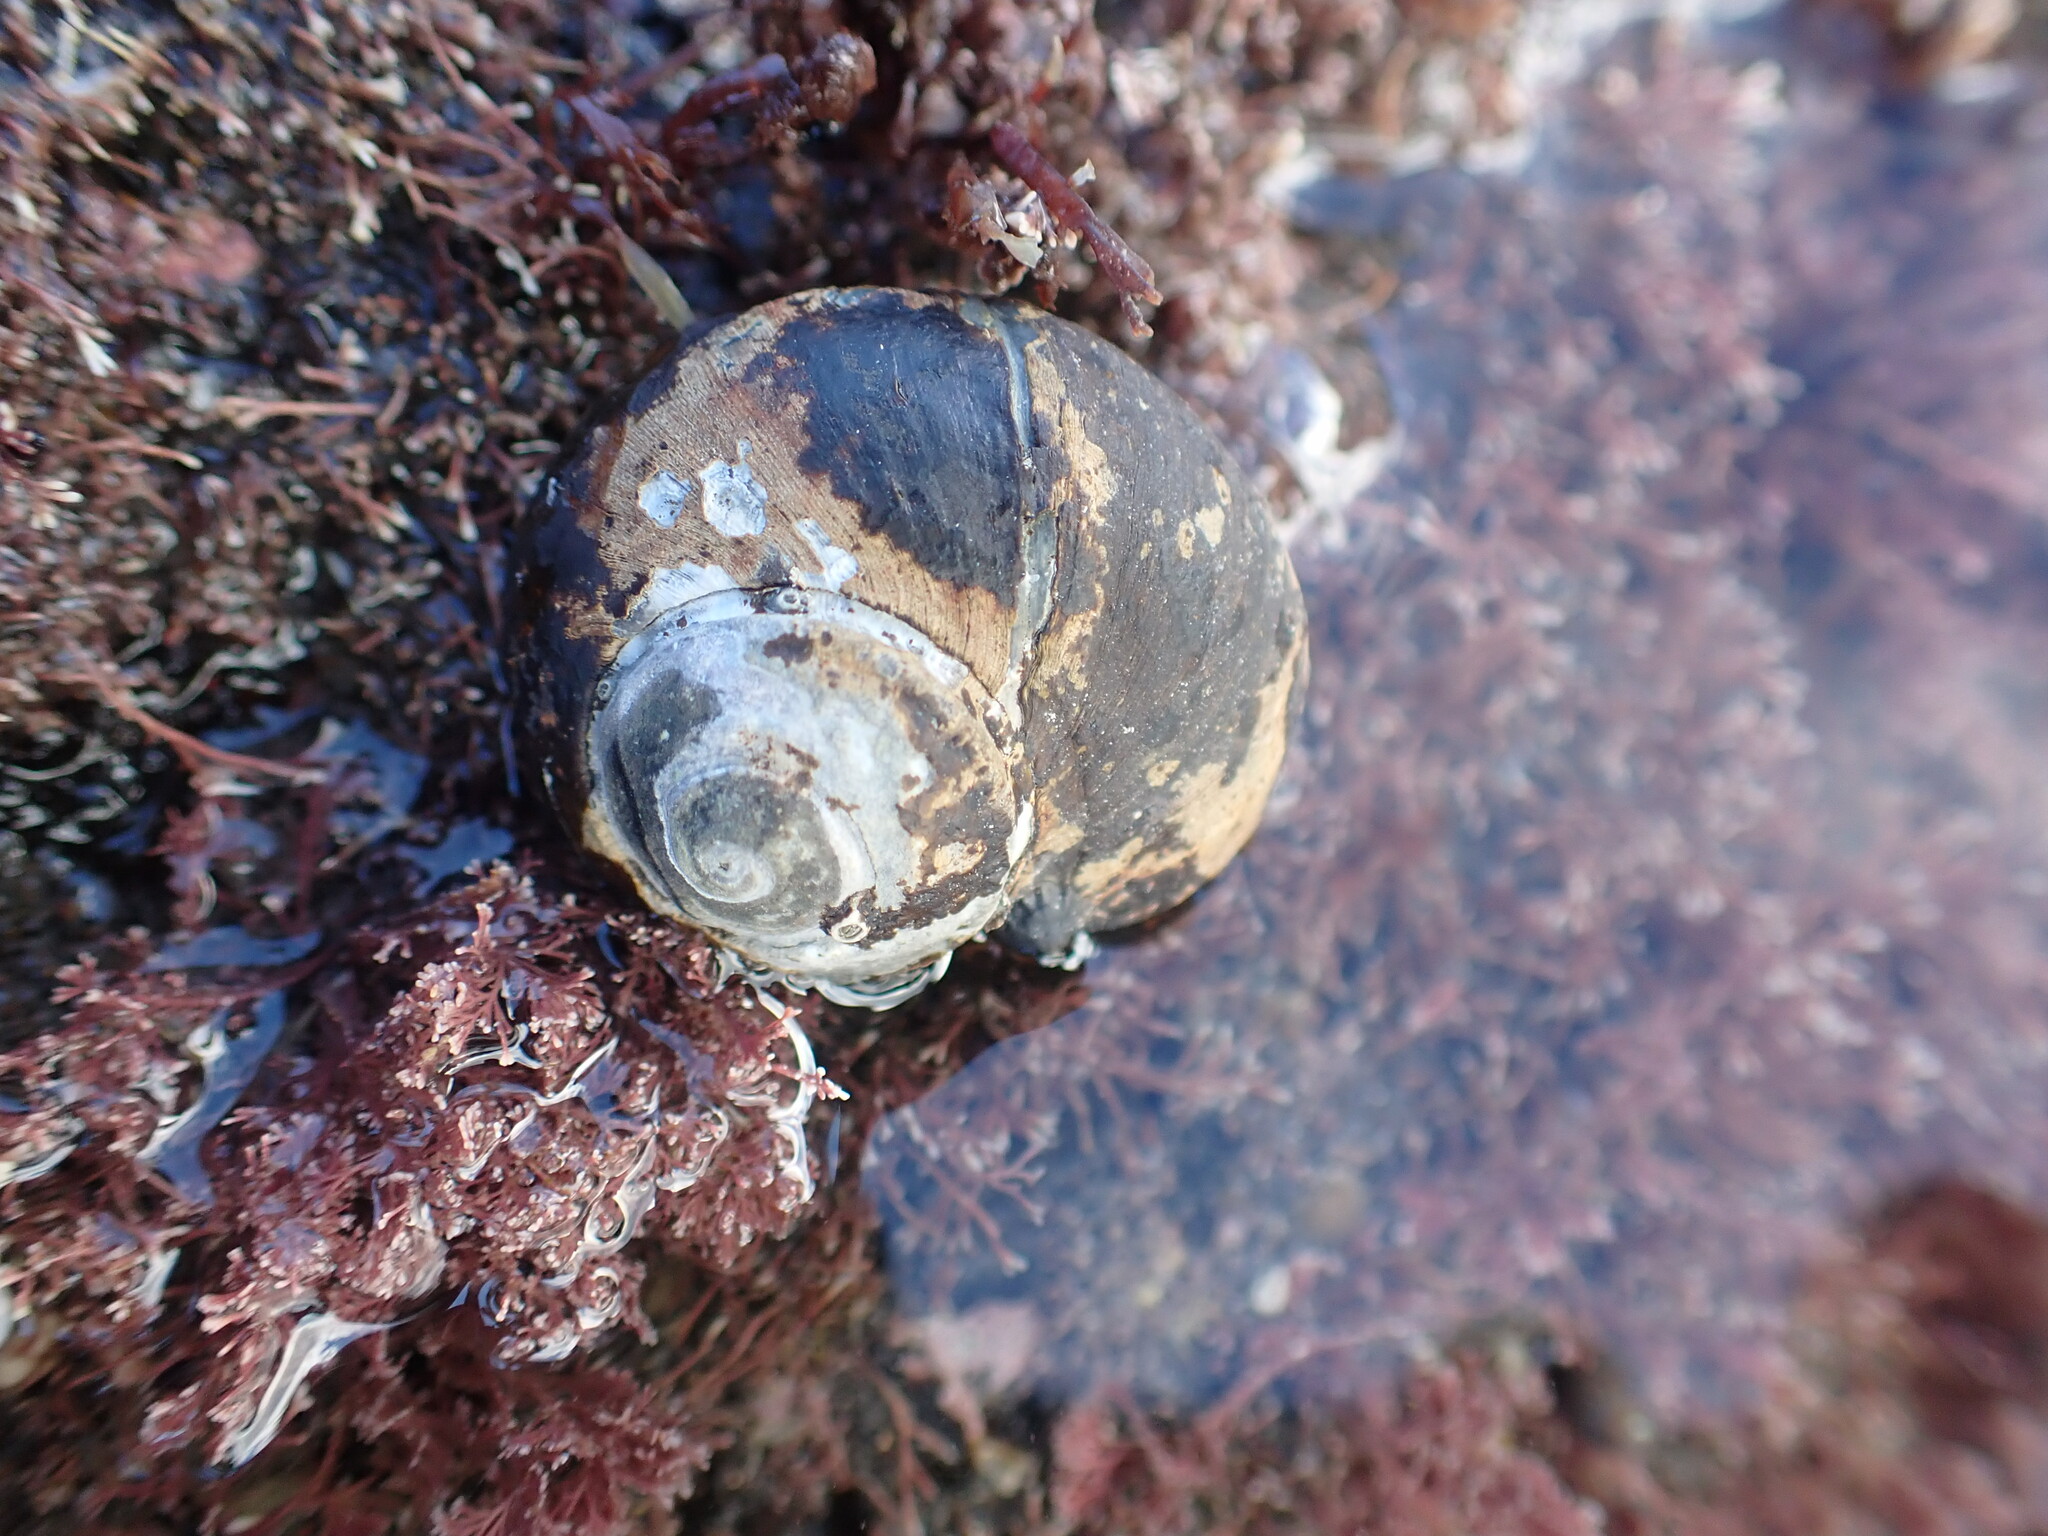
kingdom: Animalia
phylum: Mollusca
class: Gastropoda
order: Trochida
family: Turbinidae
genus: Lunella
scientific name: Lunella smaragda
